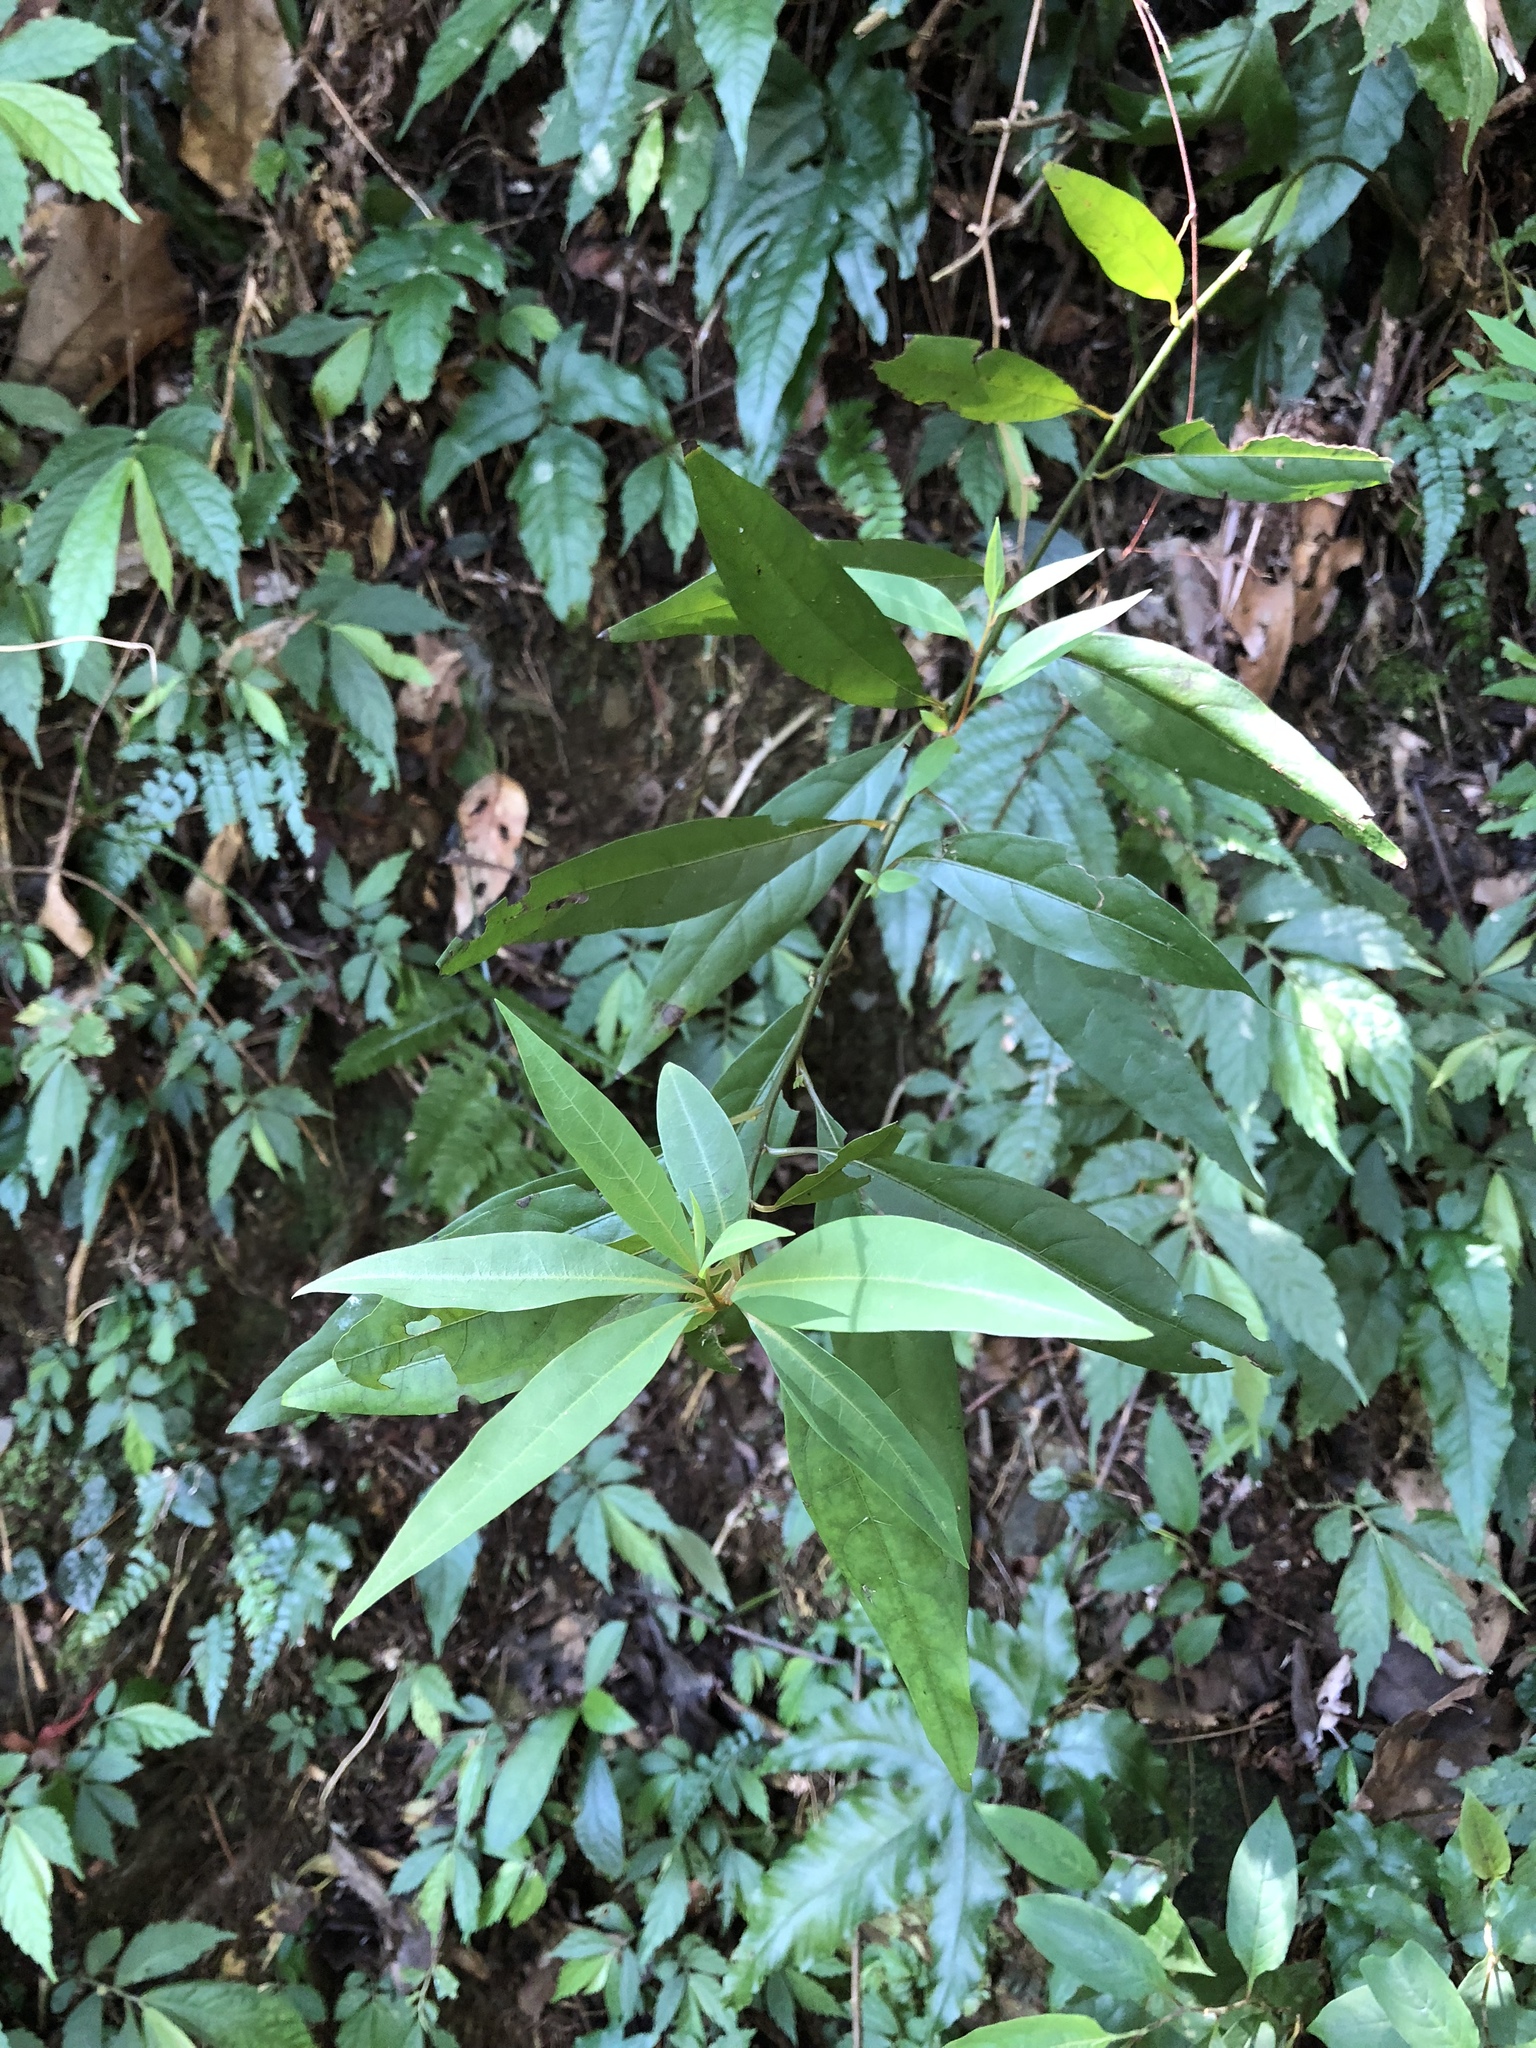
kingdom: Plantae
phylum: Tracheophyta
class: Magnoliopsida
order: Laurales
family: Lauraceae
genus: Litsea
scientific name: Litsea cubeba
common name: Mountain-pepper
